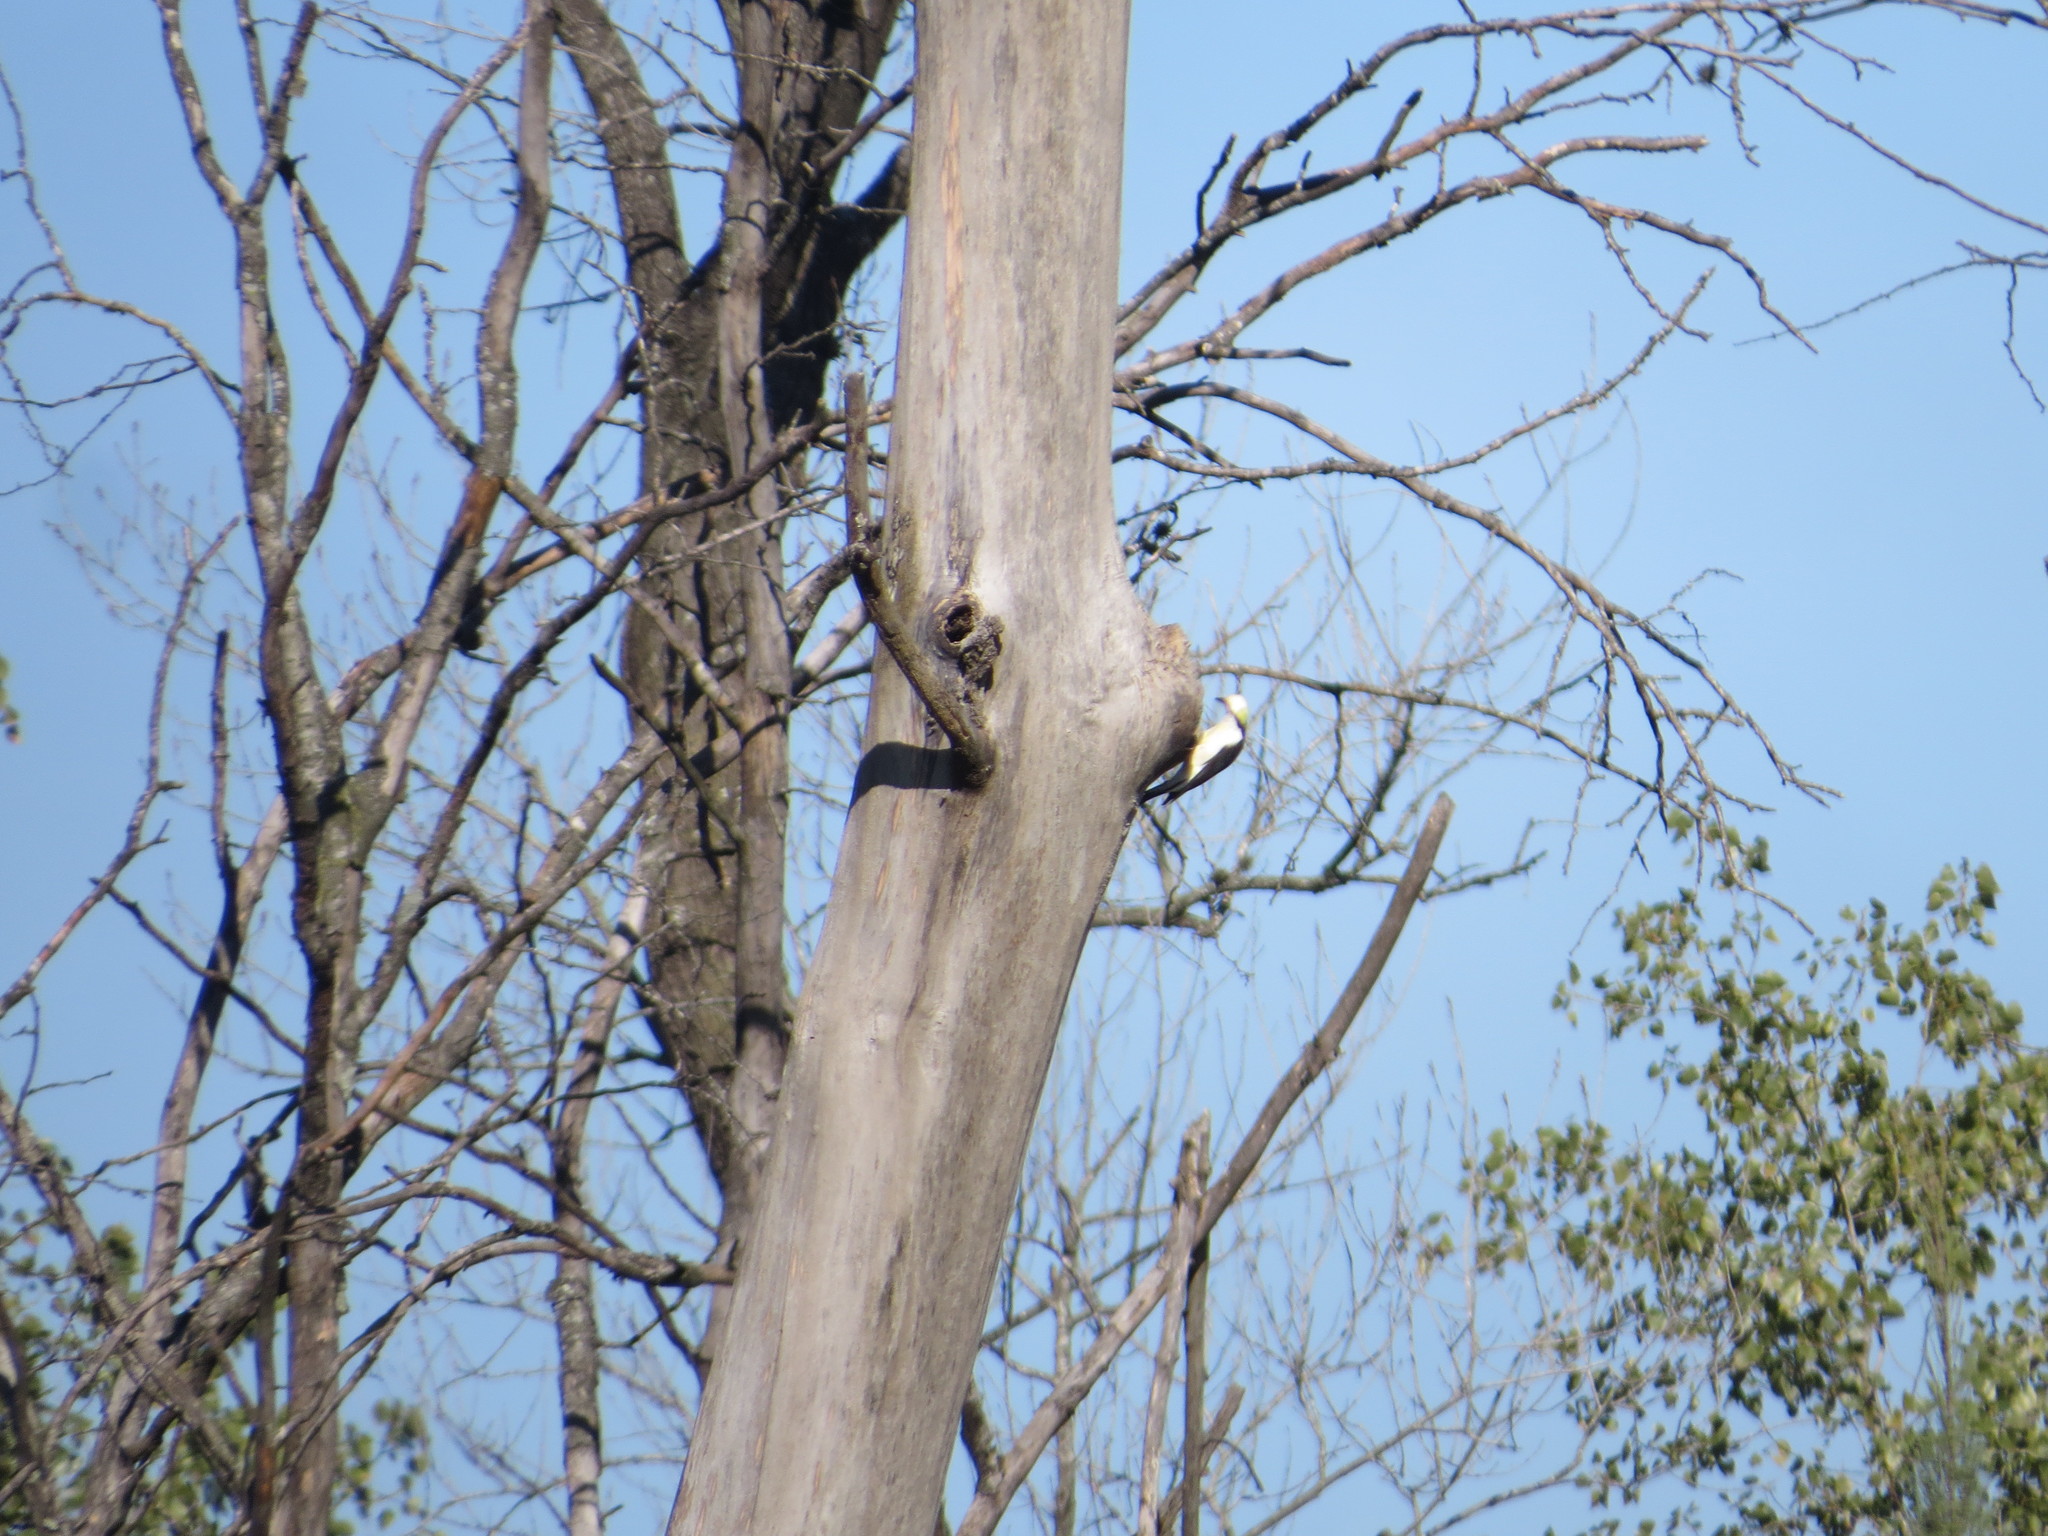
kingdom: Animalia
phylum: Chordata
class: Aves
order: Piciformes
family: Picidae
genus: Melanerpes
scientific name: Melanerpes candidus
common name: White woodpecker
